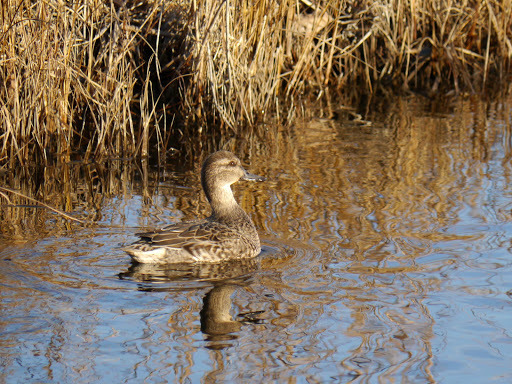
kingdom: Animalia
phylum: Chordata
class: Aves
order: Anseriformes
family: Anatidae
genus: Anas
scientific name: Anas crecca
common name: Eurasian teal
